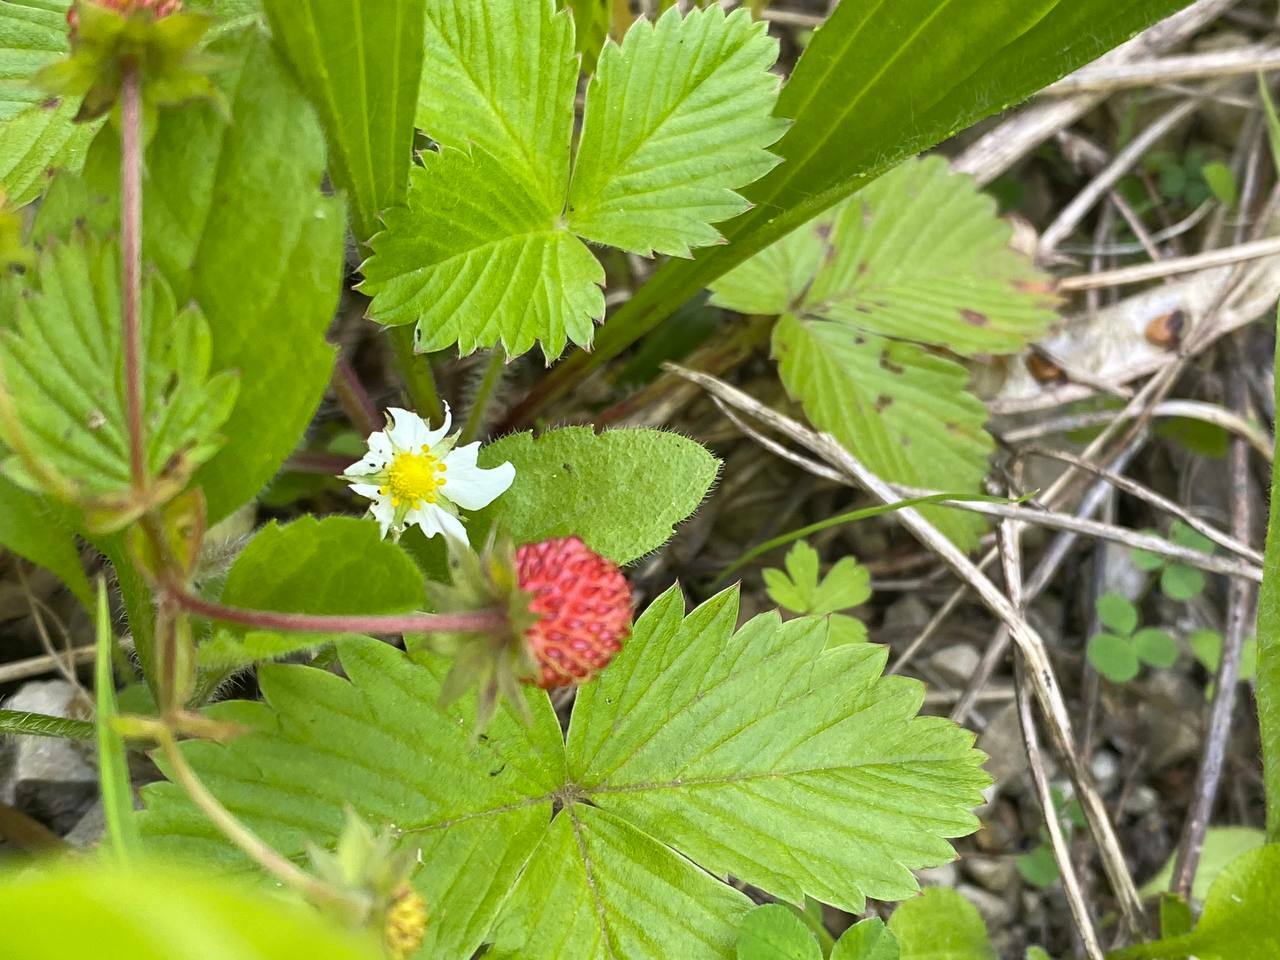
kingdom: Plantae
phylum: Tracheophyta
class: Magnoliopsida
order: Rosales
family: Rosaceae
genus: Fragaria
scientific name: Fragaria vesca
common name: Wild strawberry
